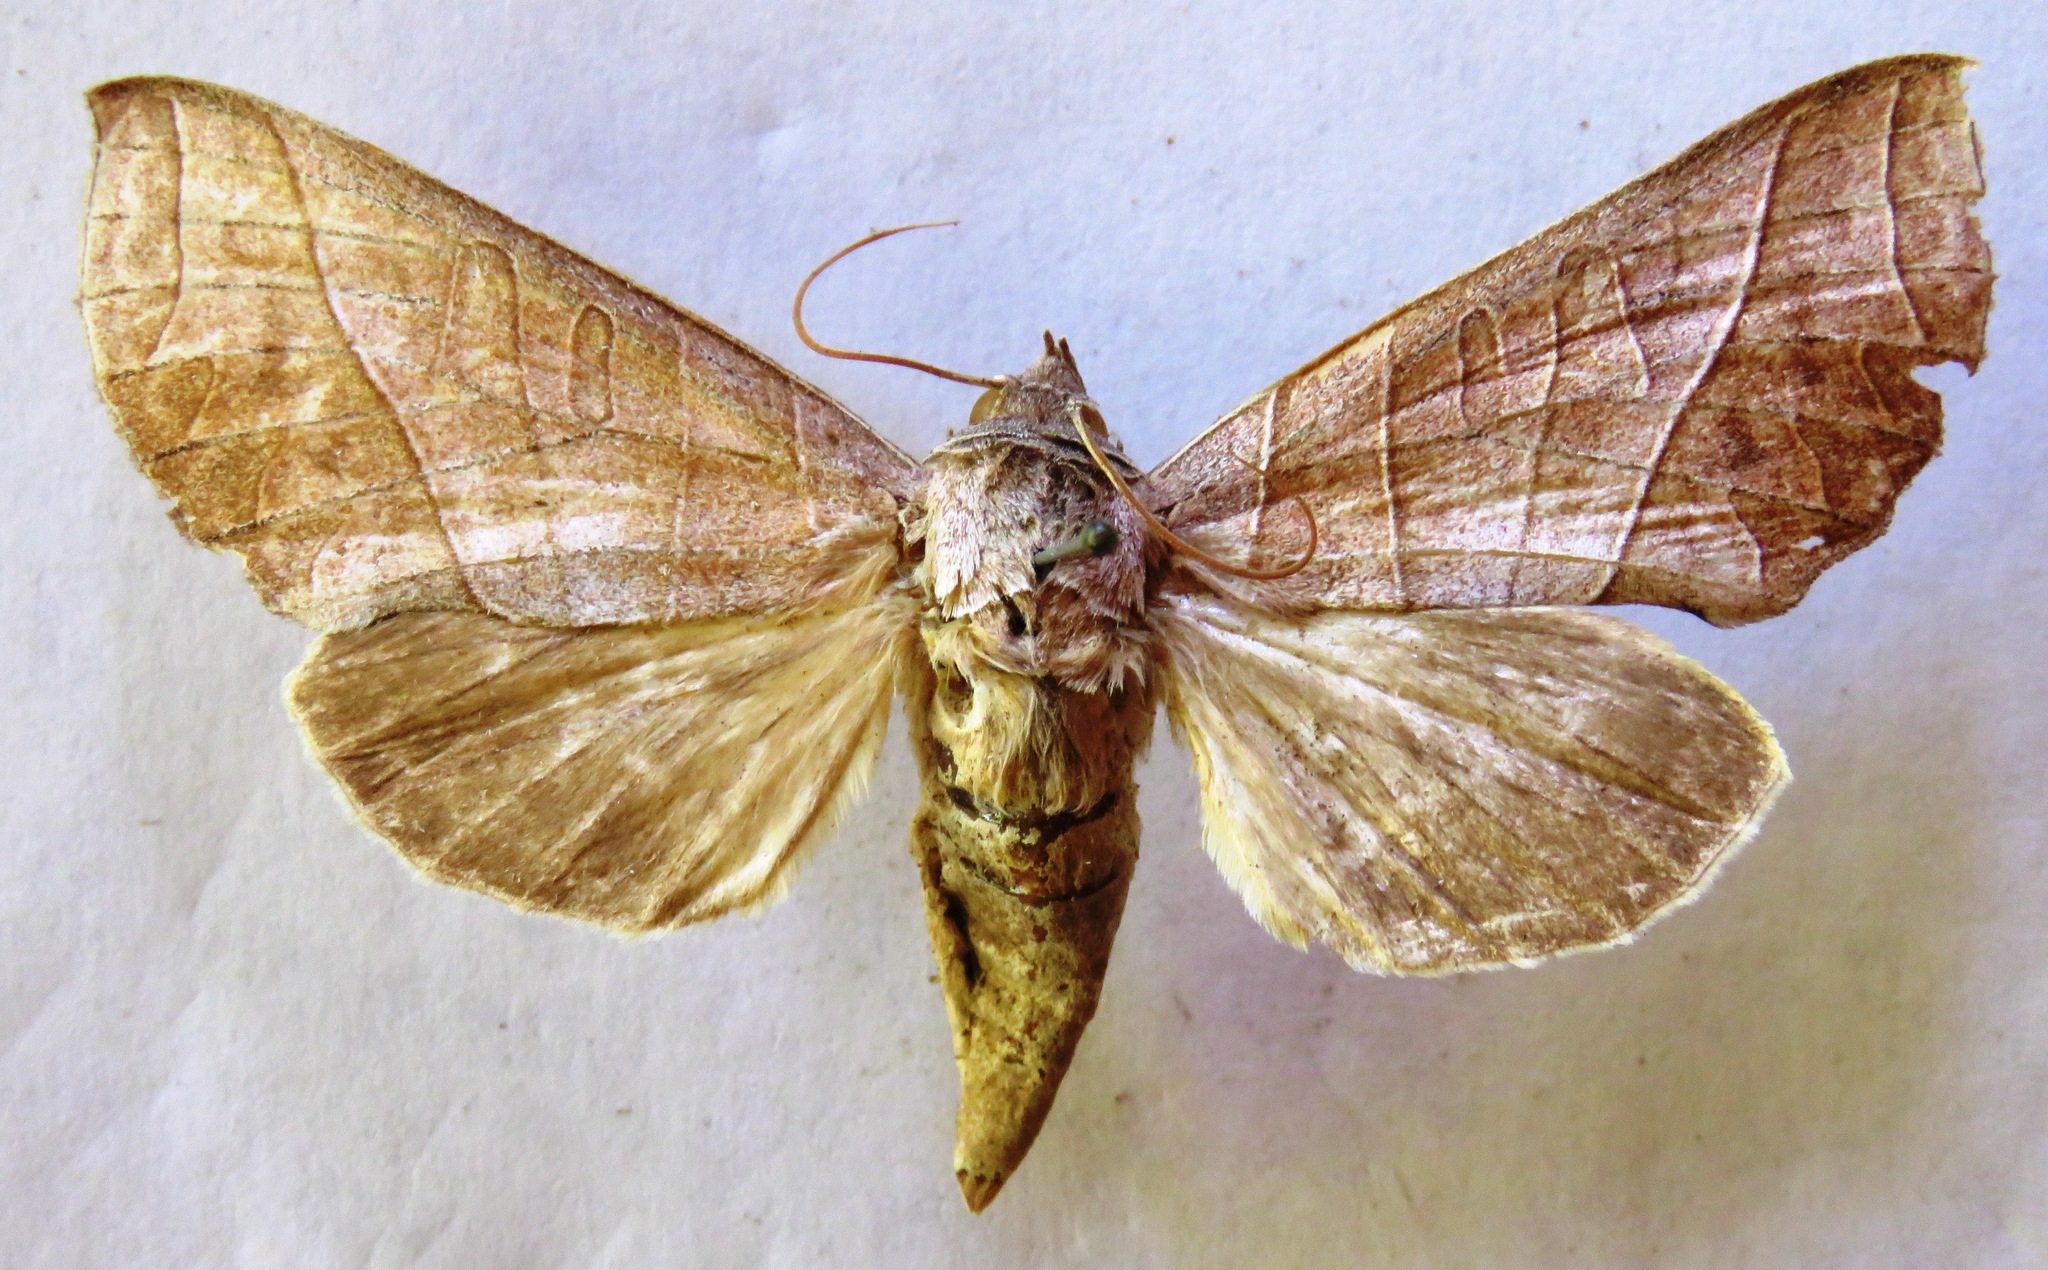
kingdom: Animalia
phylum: Arthropoda
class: Insecta
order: Lepidoptera
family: Notodontidae
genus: Antaea
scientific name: Antaea licormas
